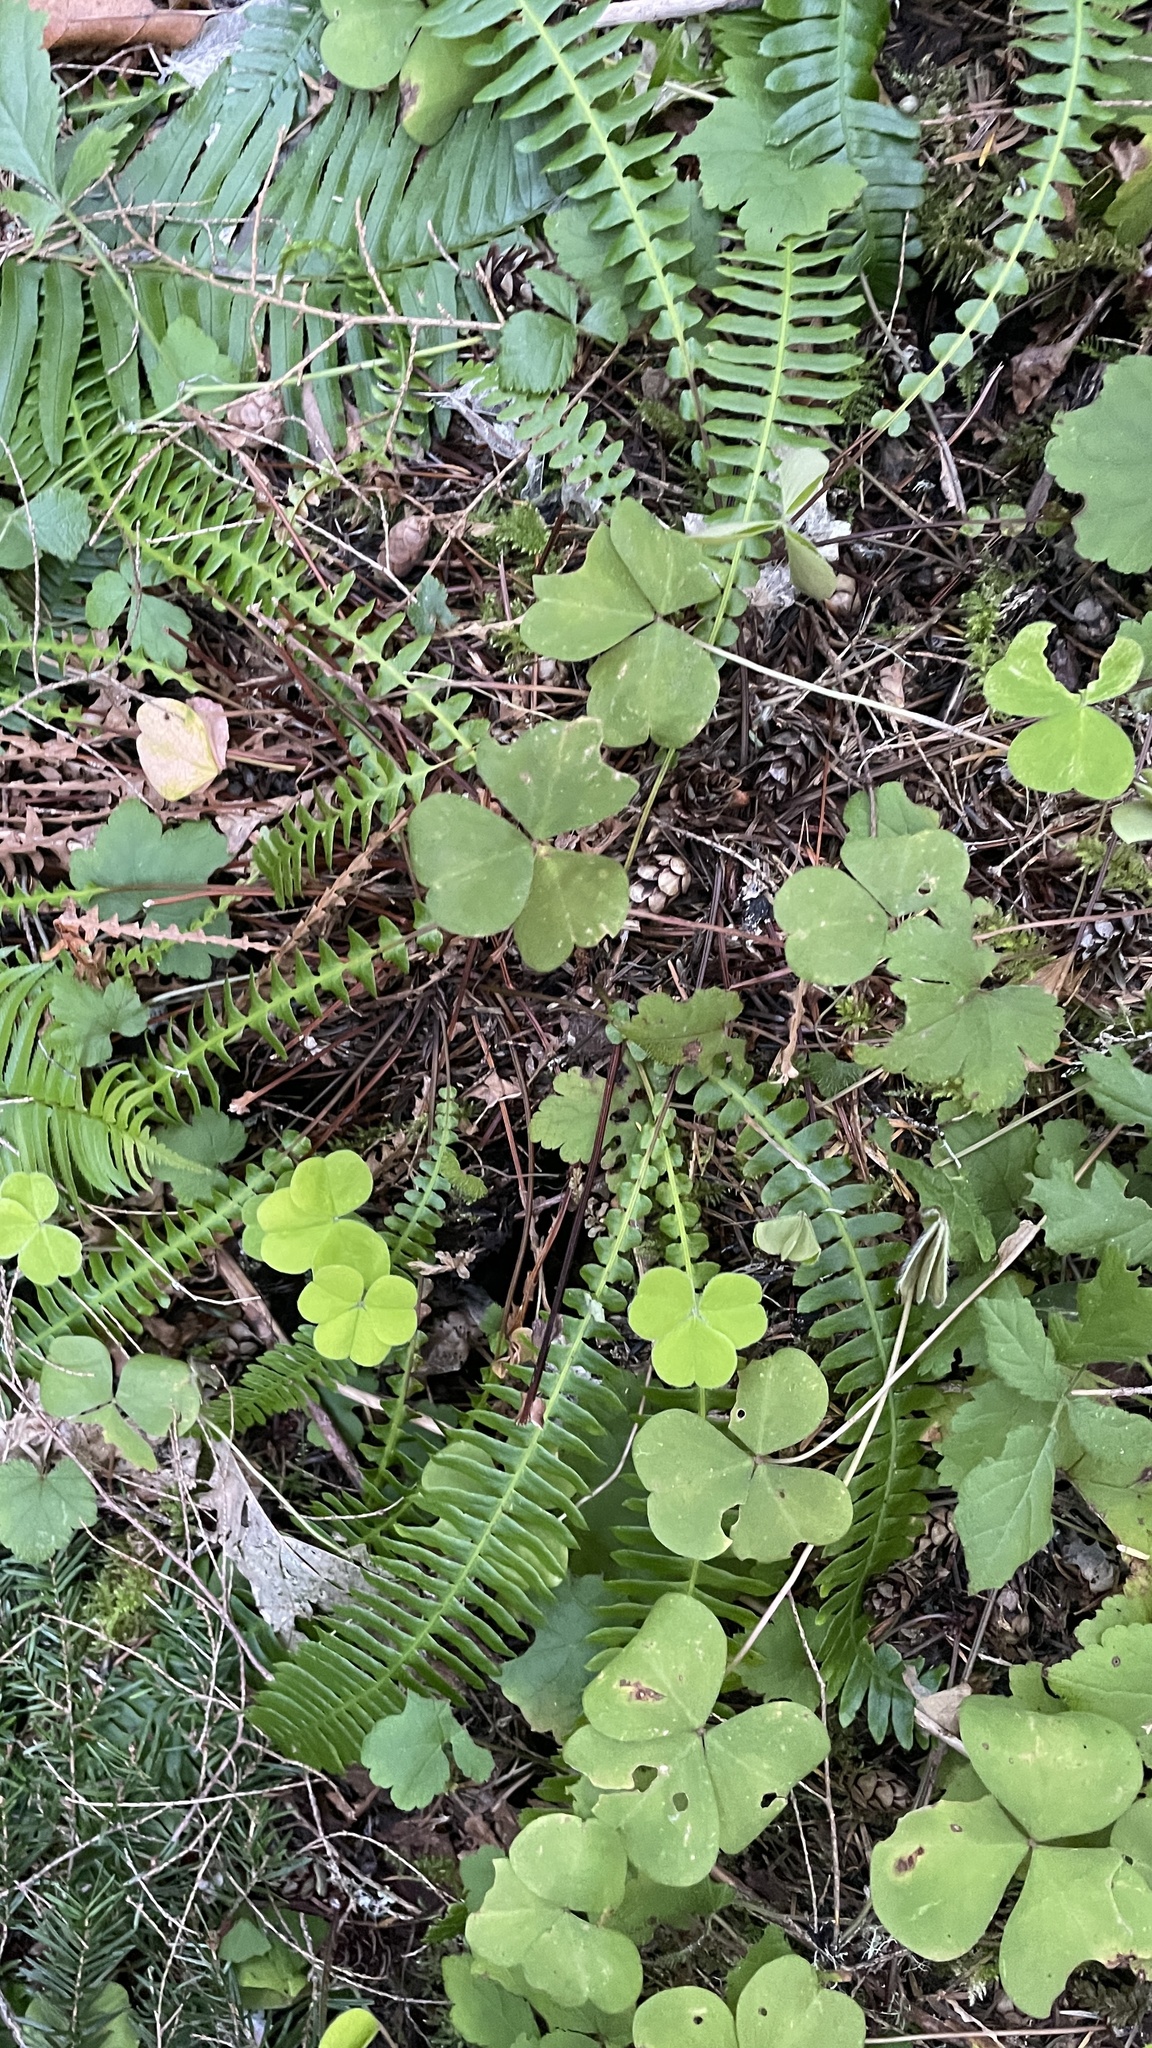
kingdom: Plantae
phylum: Tracheophyta
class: Polypodiopsida
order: Polypodiales
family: Blechnaceae
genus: Struthiopteris
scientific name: Struthiopteris spicant
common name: Deer fern
